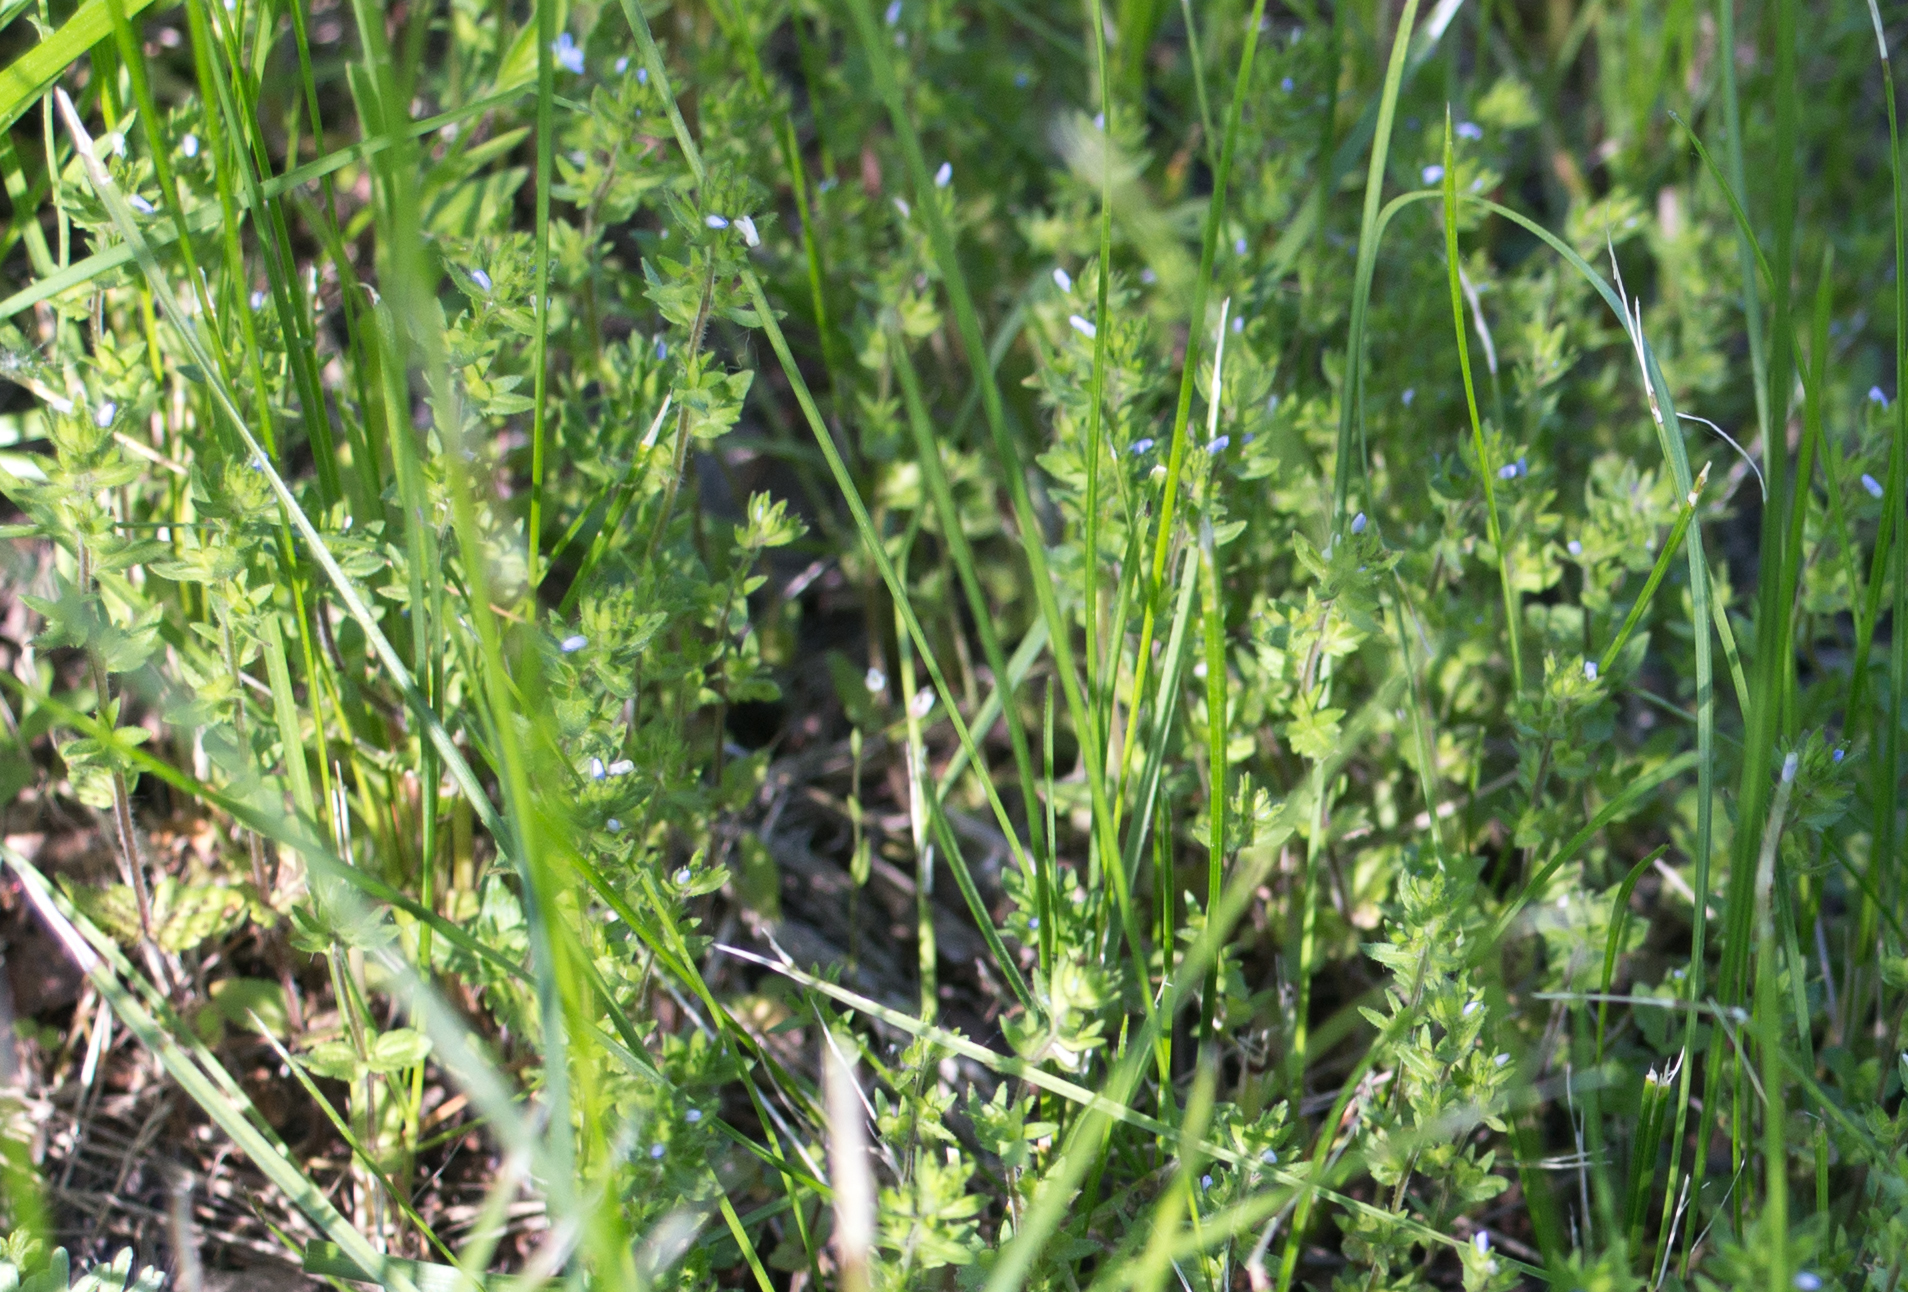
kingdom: Plantae
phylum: Tracheophyta
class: Magnoliopsida
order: Lamiales
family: Plantaginaceae
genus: Veronica
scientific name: Veronica arvensis
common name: Corn speedwell
